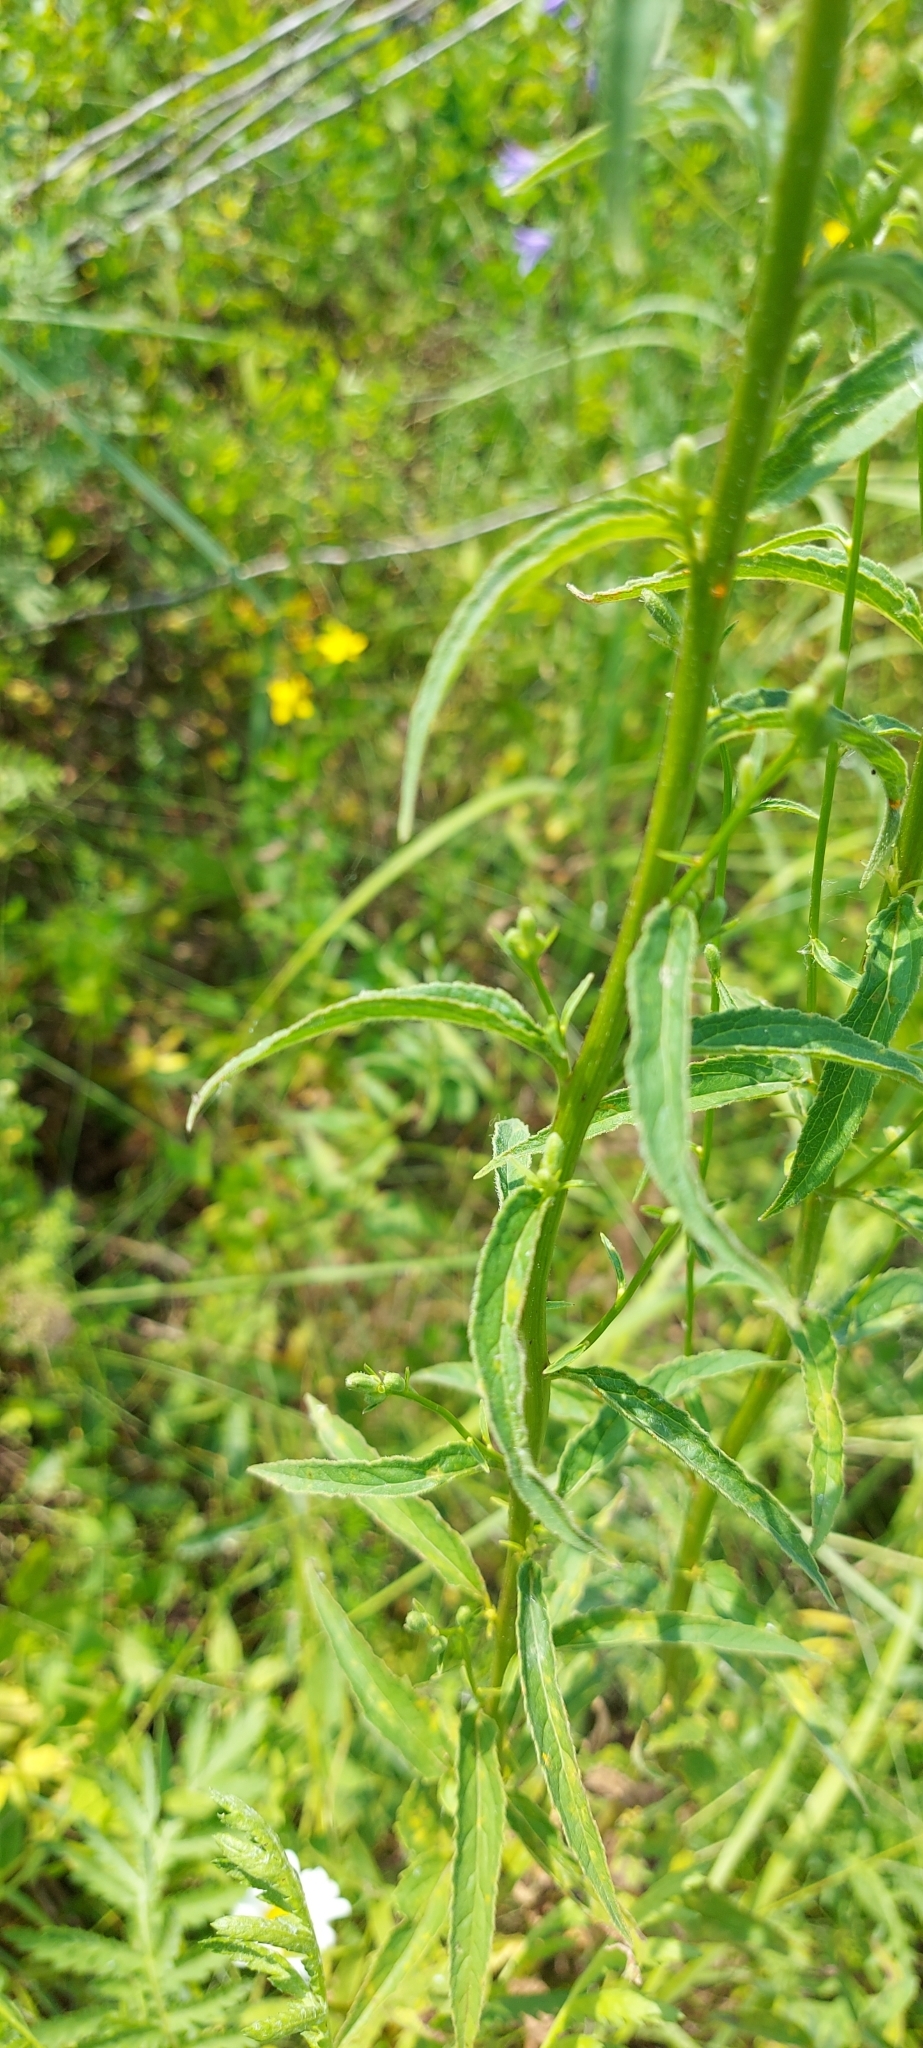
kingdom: Plantae
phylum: Tracheophyta
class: Magnoliopsida
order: Asterales
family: Campanulaceae
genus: Campanula
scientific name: Campanula rapunculoides
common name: Creeping bellflower
